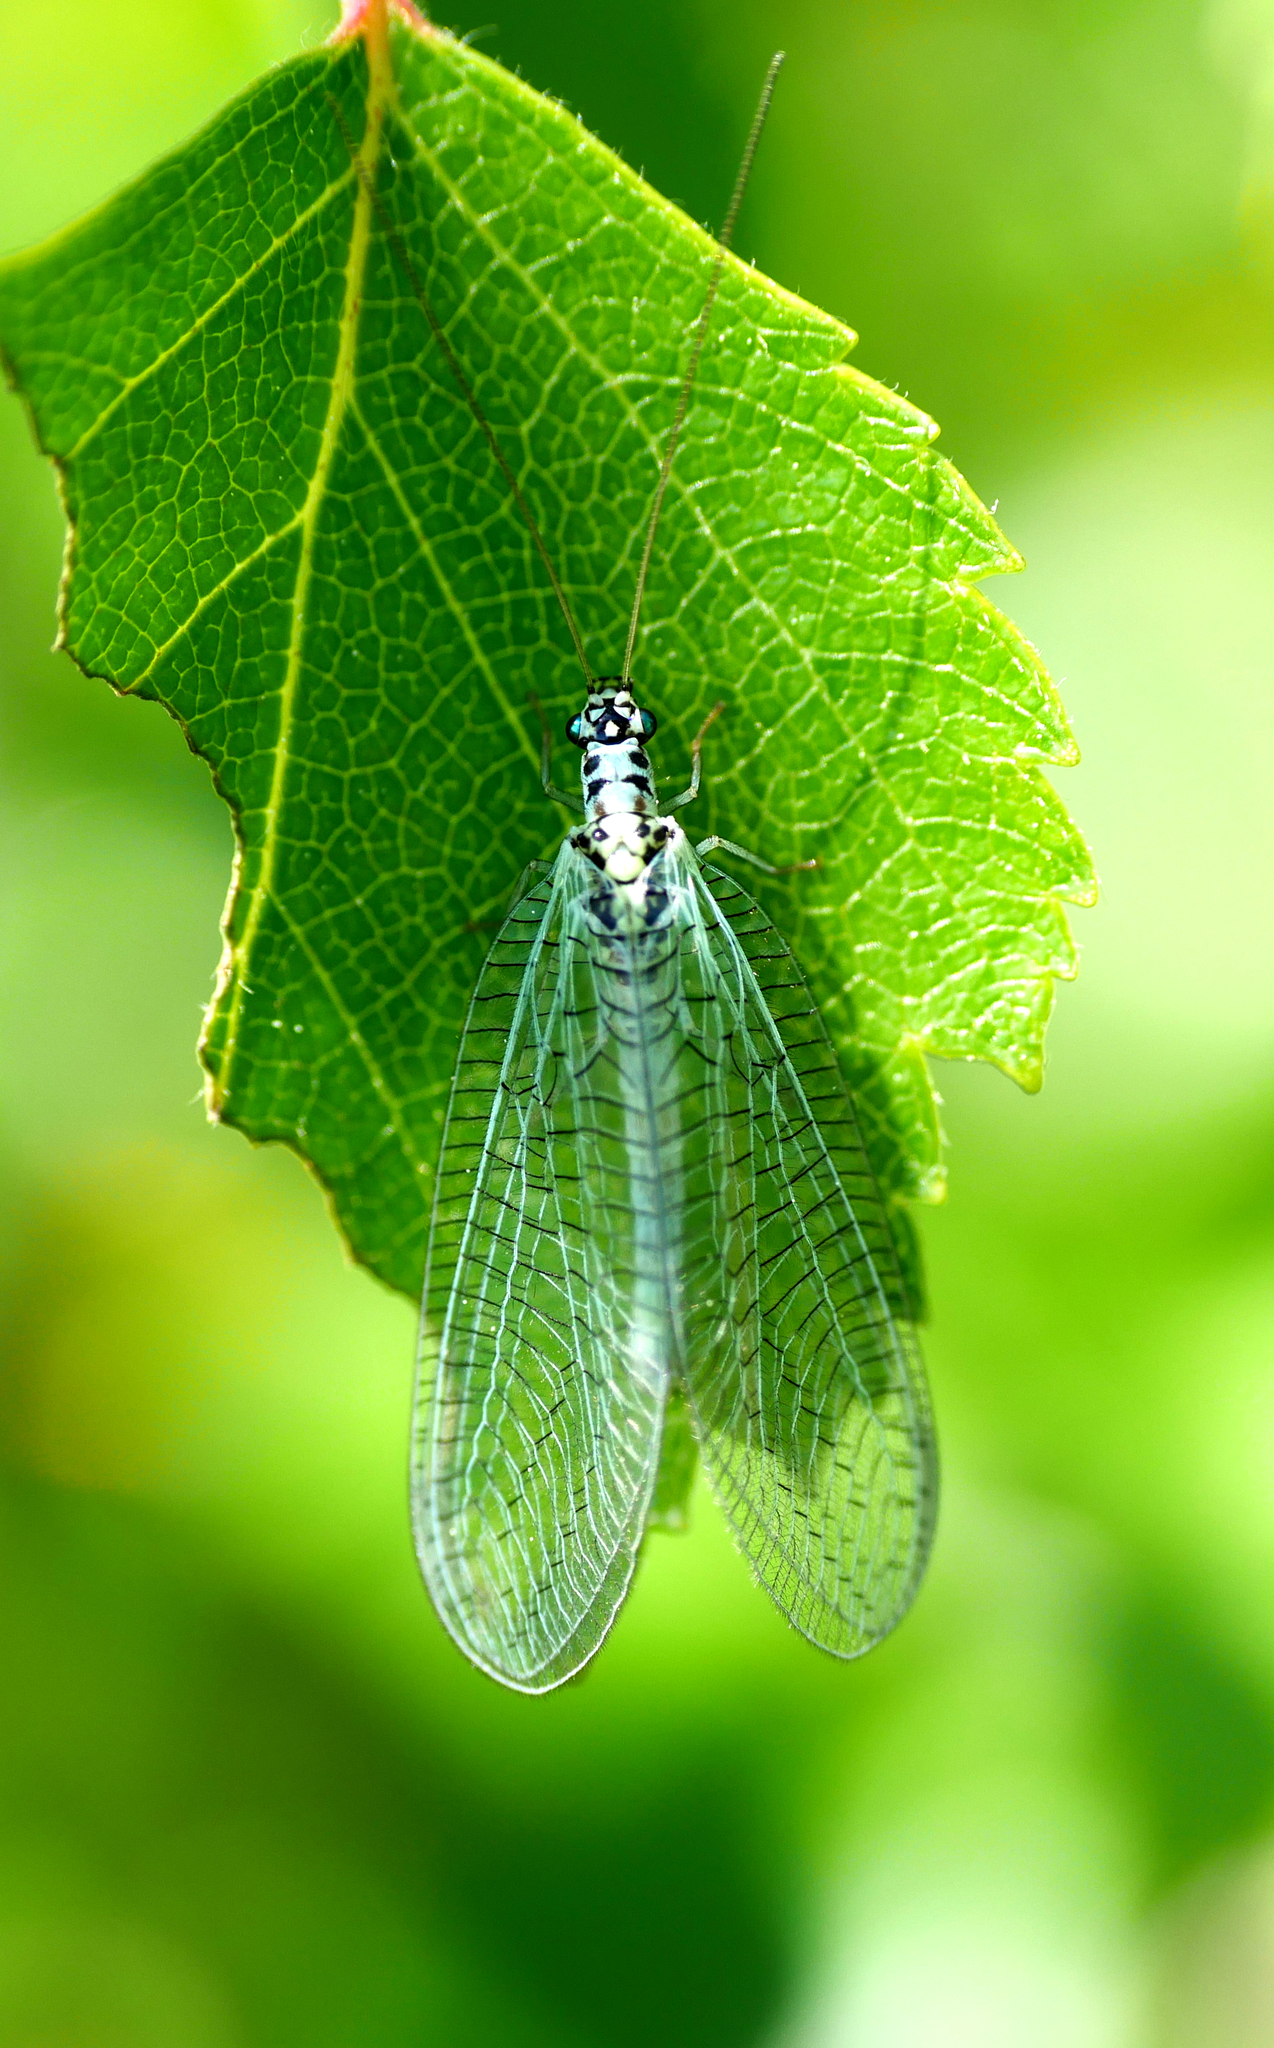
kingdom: Animalia
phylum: Arthropoda
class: Insecta
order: Neuroptera
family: Chrysopidae
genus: Chrysopa
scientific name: Chrysopa perla
